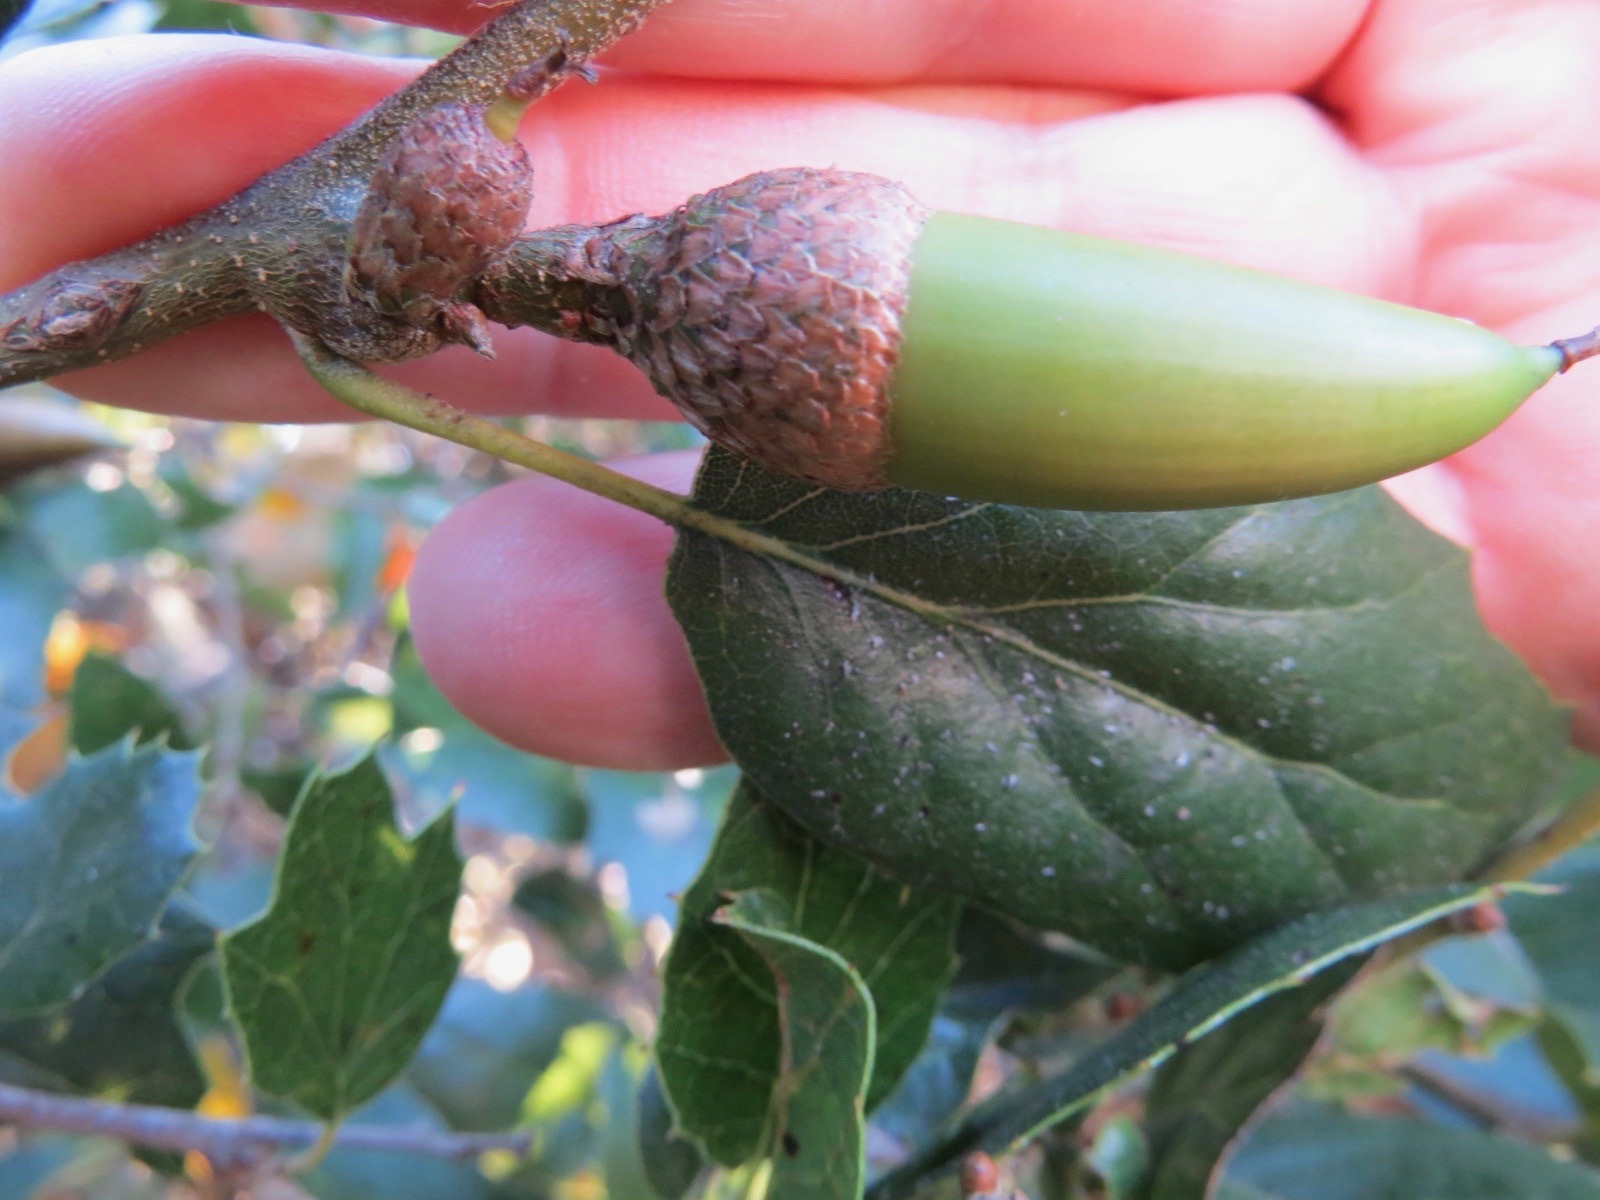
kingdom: Plantae
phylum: Tracheophyta
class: Magnoliopsida
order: Fagales
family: Fagaceae
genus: Quercus
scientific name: Quercus agrifolia
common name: California live oak
